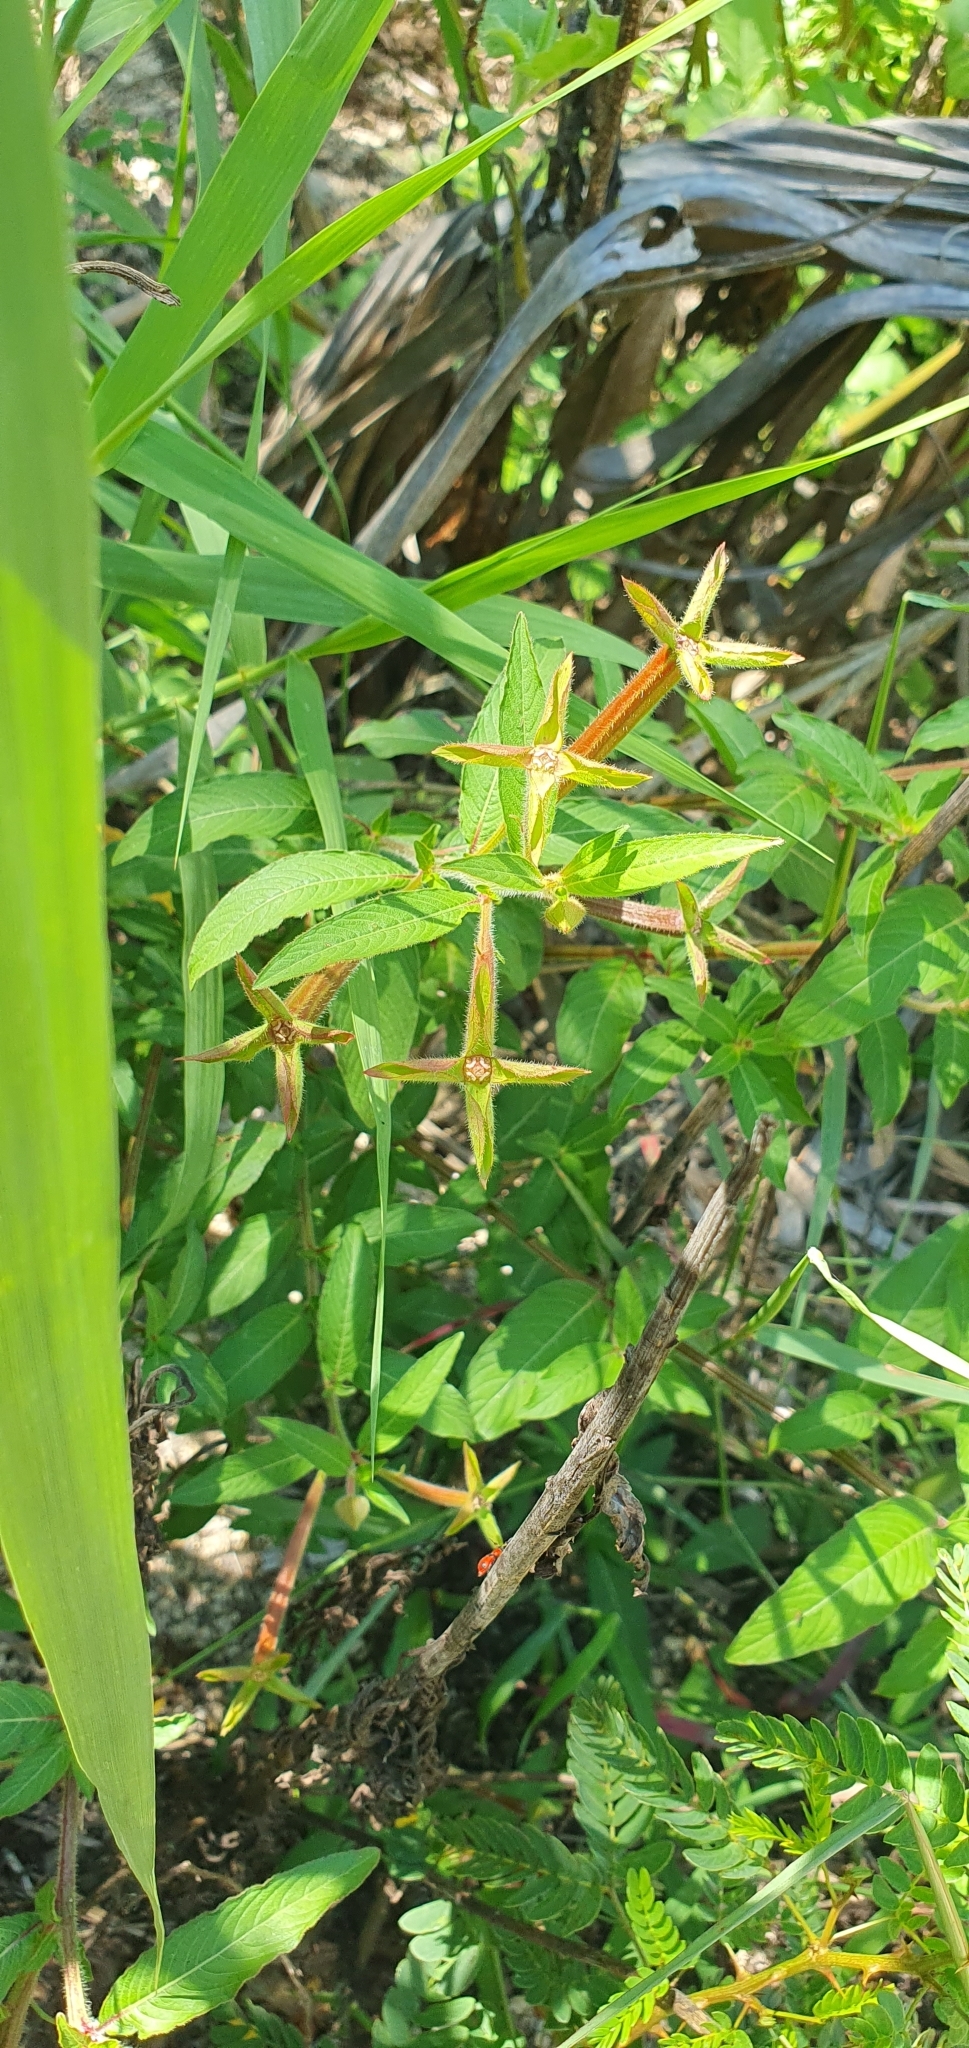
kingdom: Plantae
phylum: Tracheophyta
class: Magnoliopsida
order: Myrtales
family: Onagraceae
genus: Ludwigia
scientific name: Ludwigia octovalvis
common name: Water-primrose
